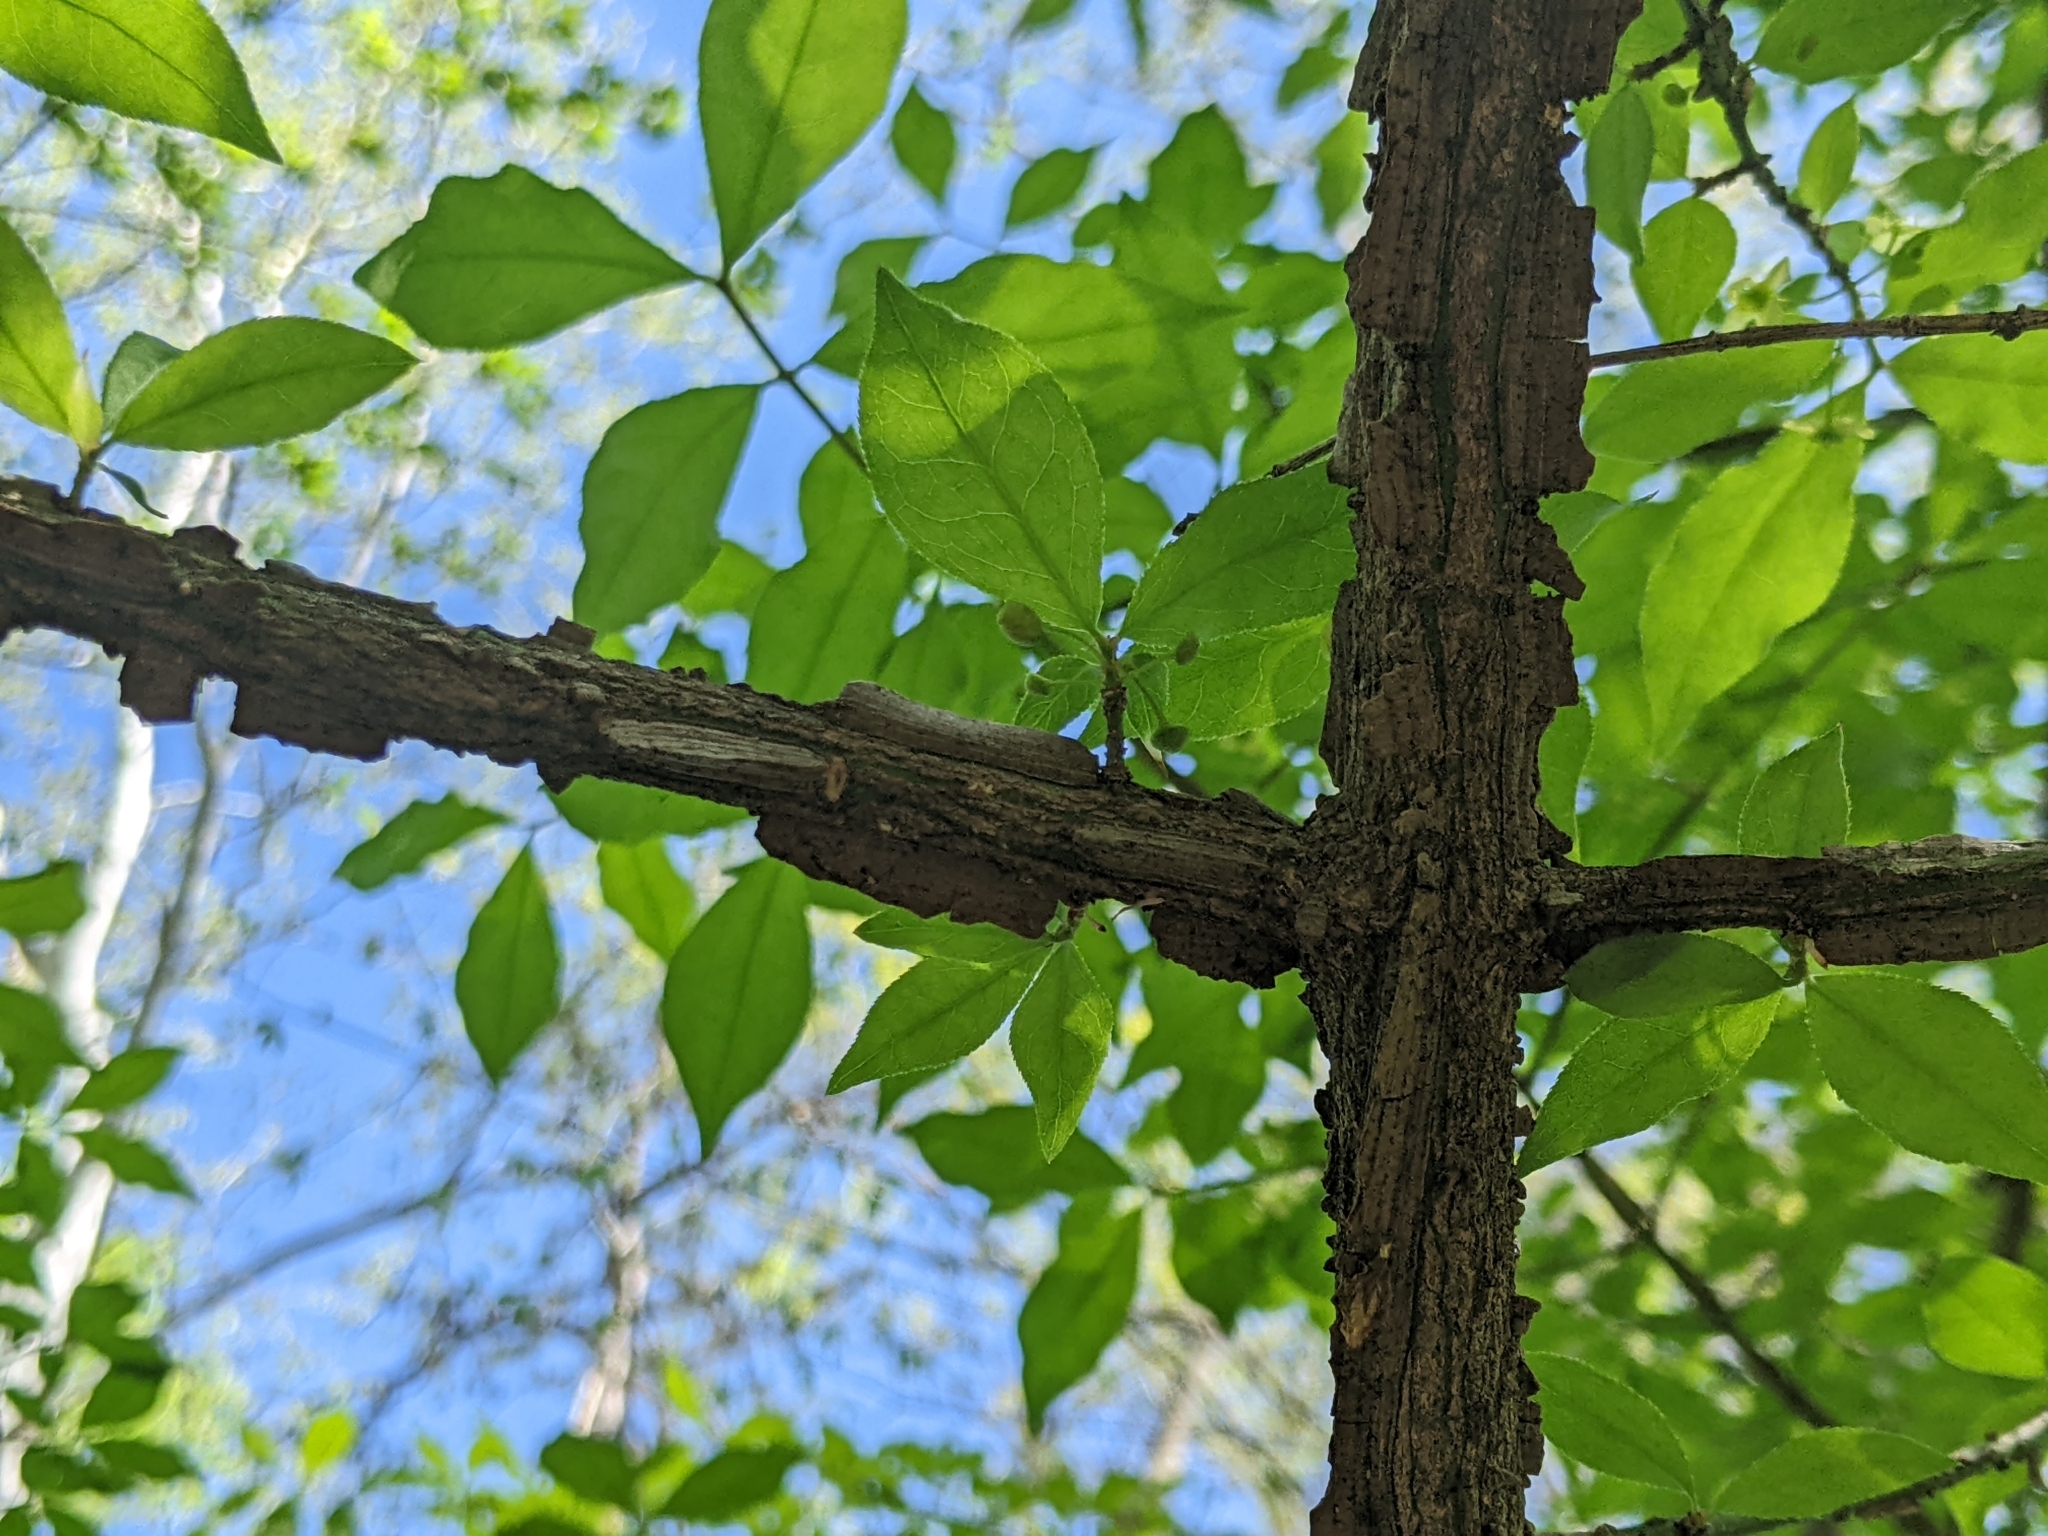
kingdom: Plantae
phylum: Tracheophyta
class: Magnoliopsida
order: Celastrales
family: Celastraceae
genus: Euonymus
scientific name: Euonymus alatus
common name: Winged euonymus
